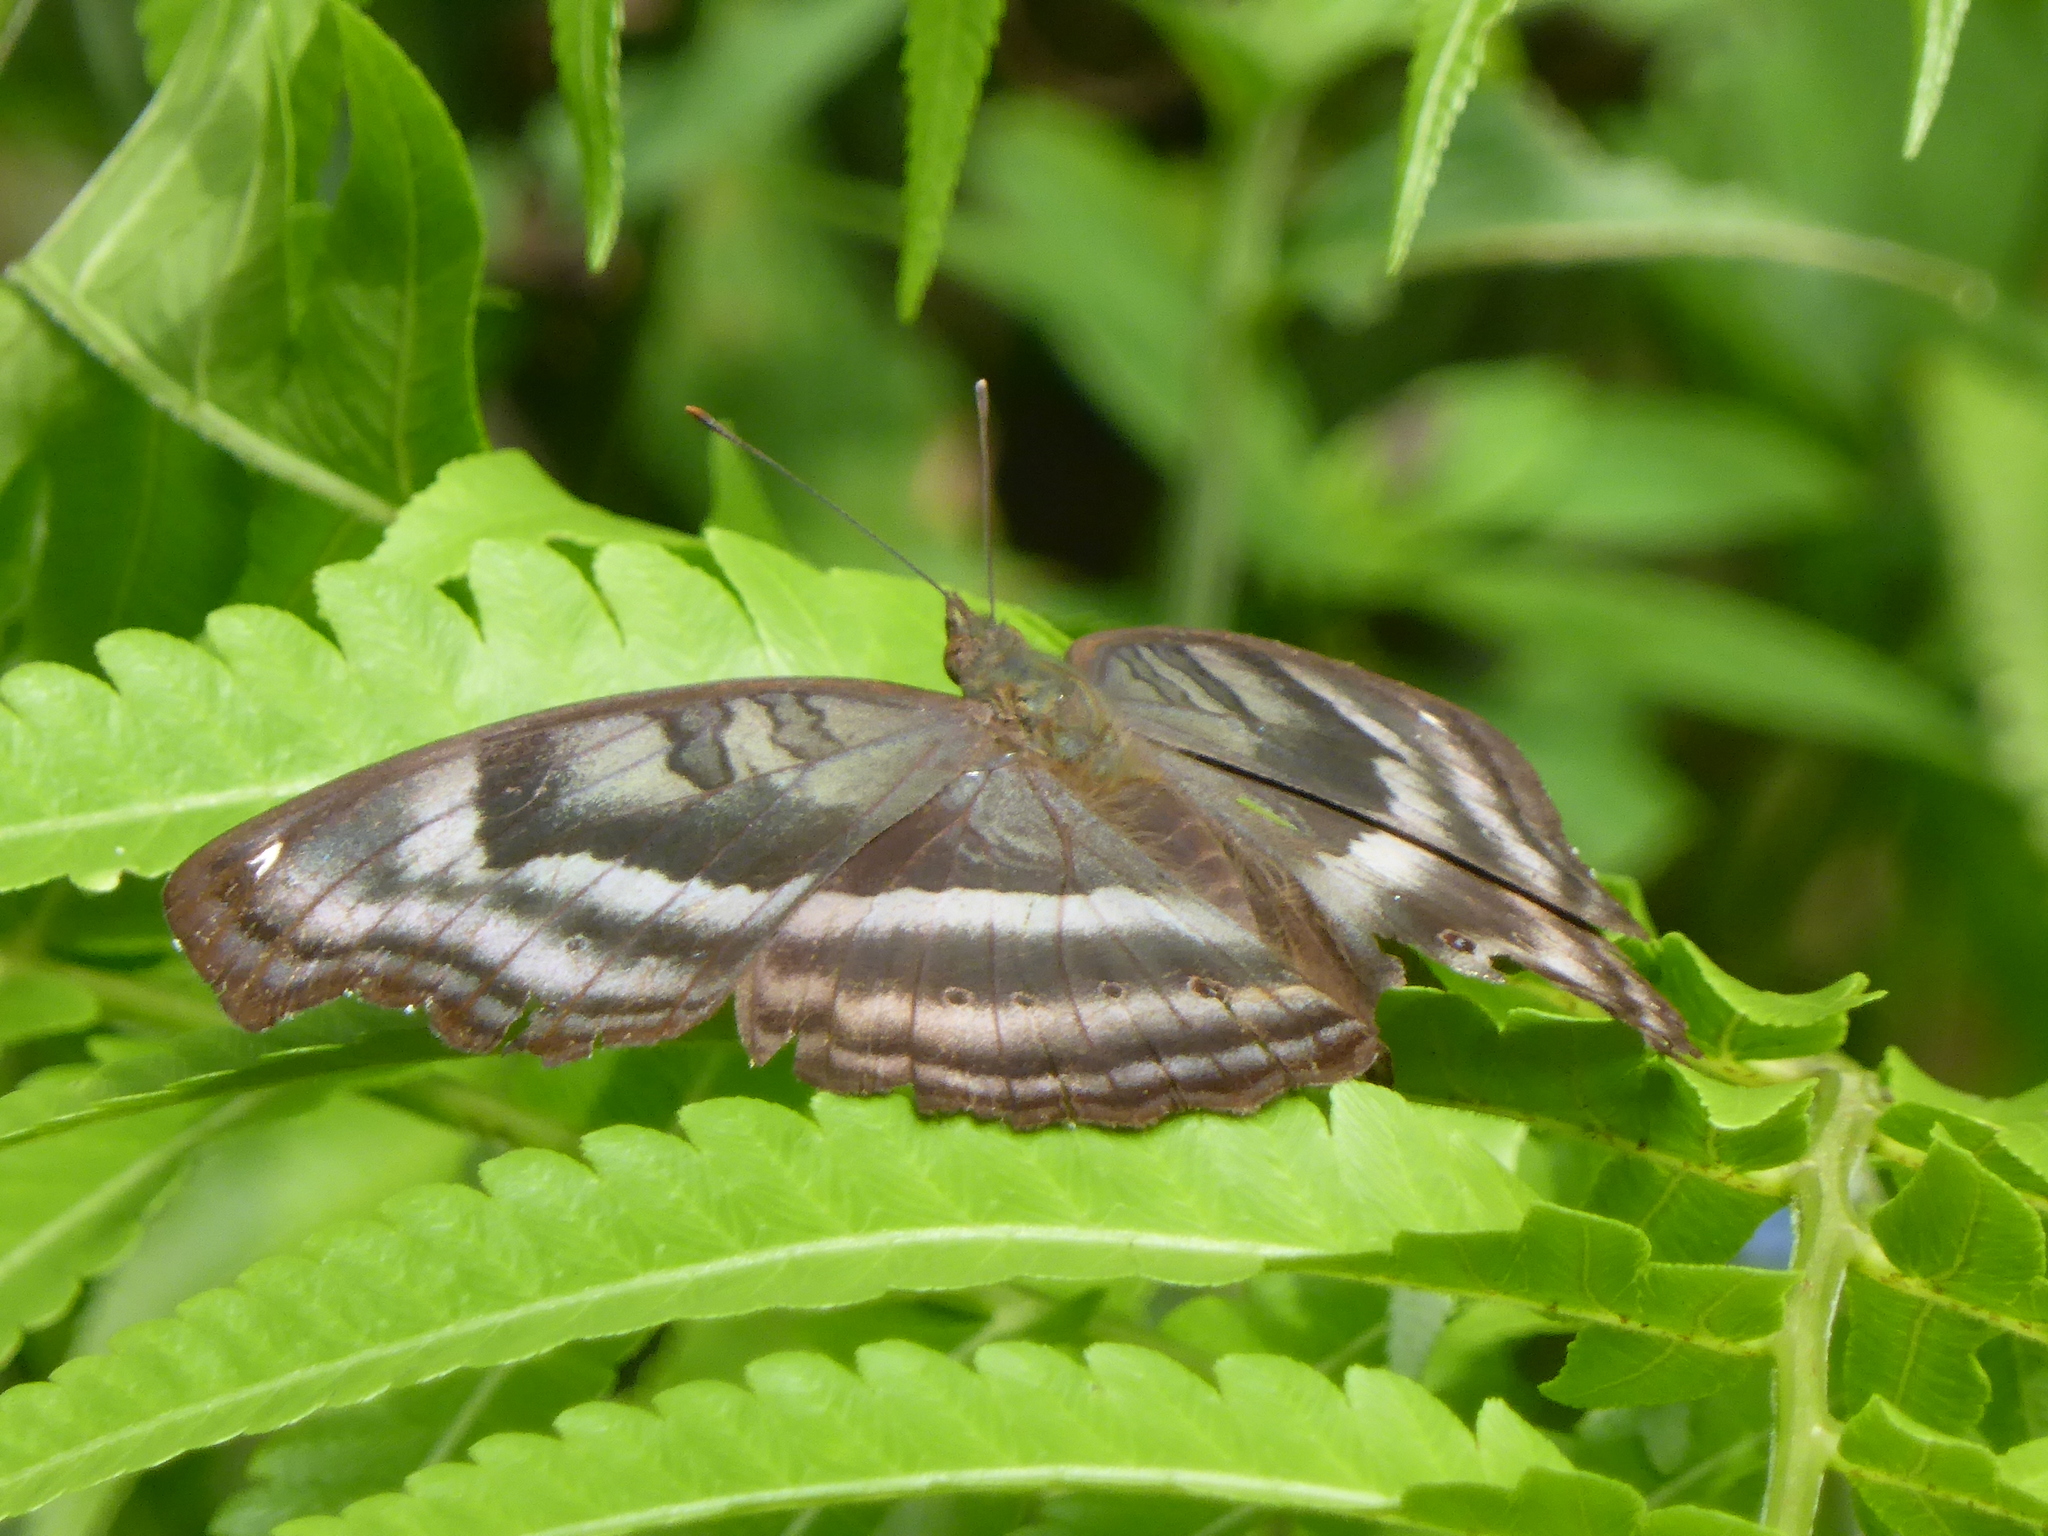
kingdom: Animalia
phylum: Arthropoda
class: Insecta
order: Lepidoptera
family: Nymphalidae
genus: Junonia
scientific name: Junonia iphita
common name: Chocolate pansy
